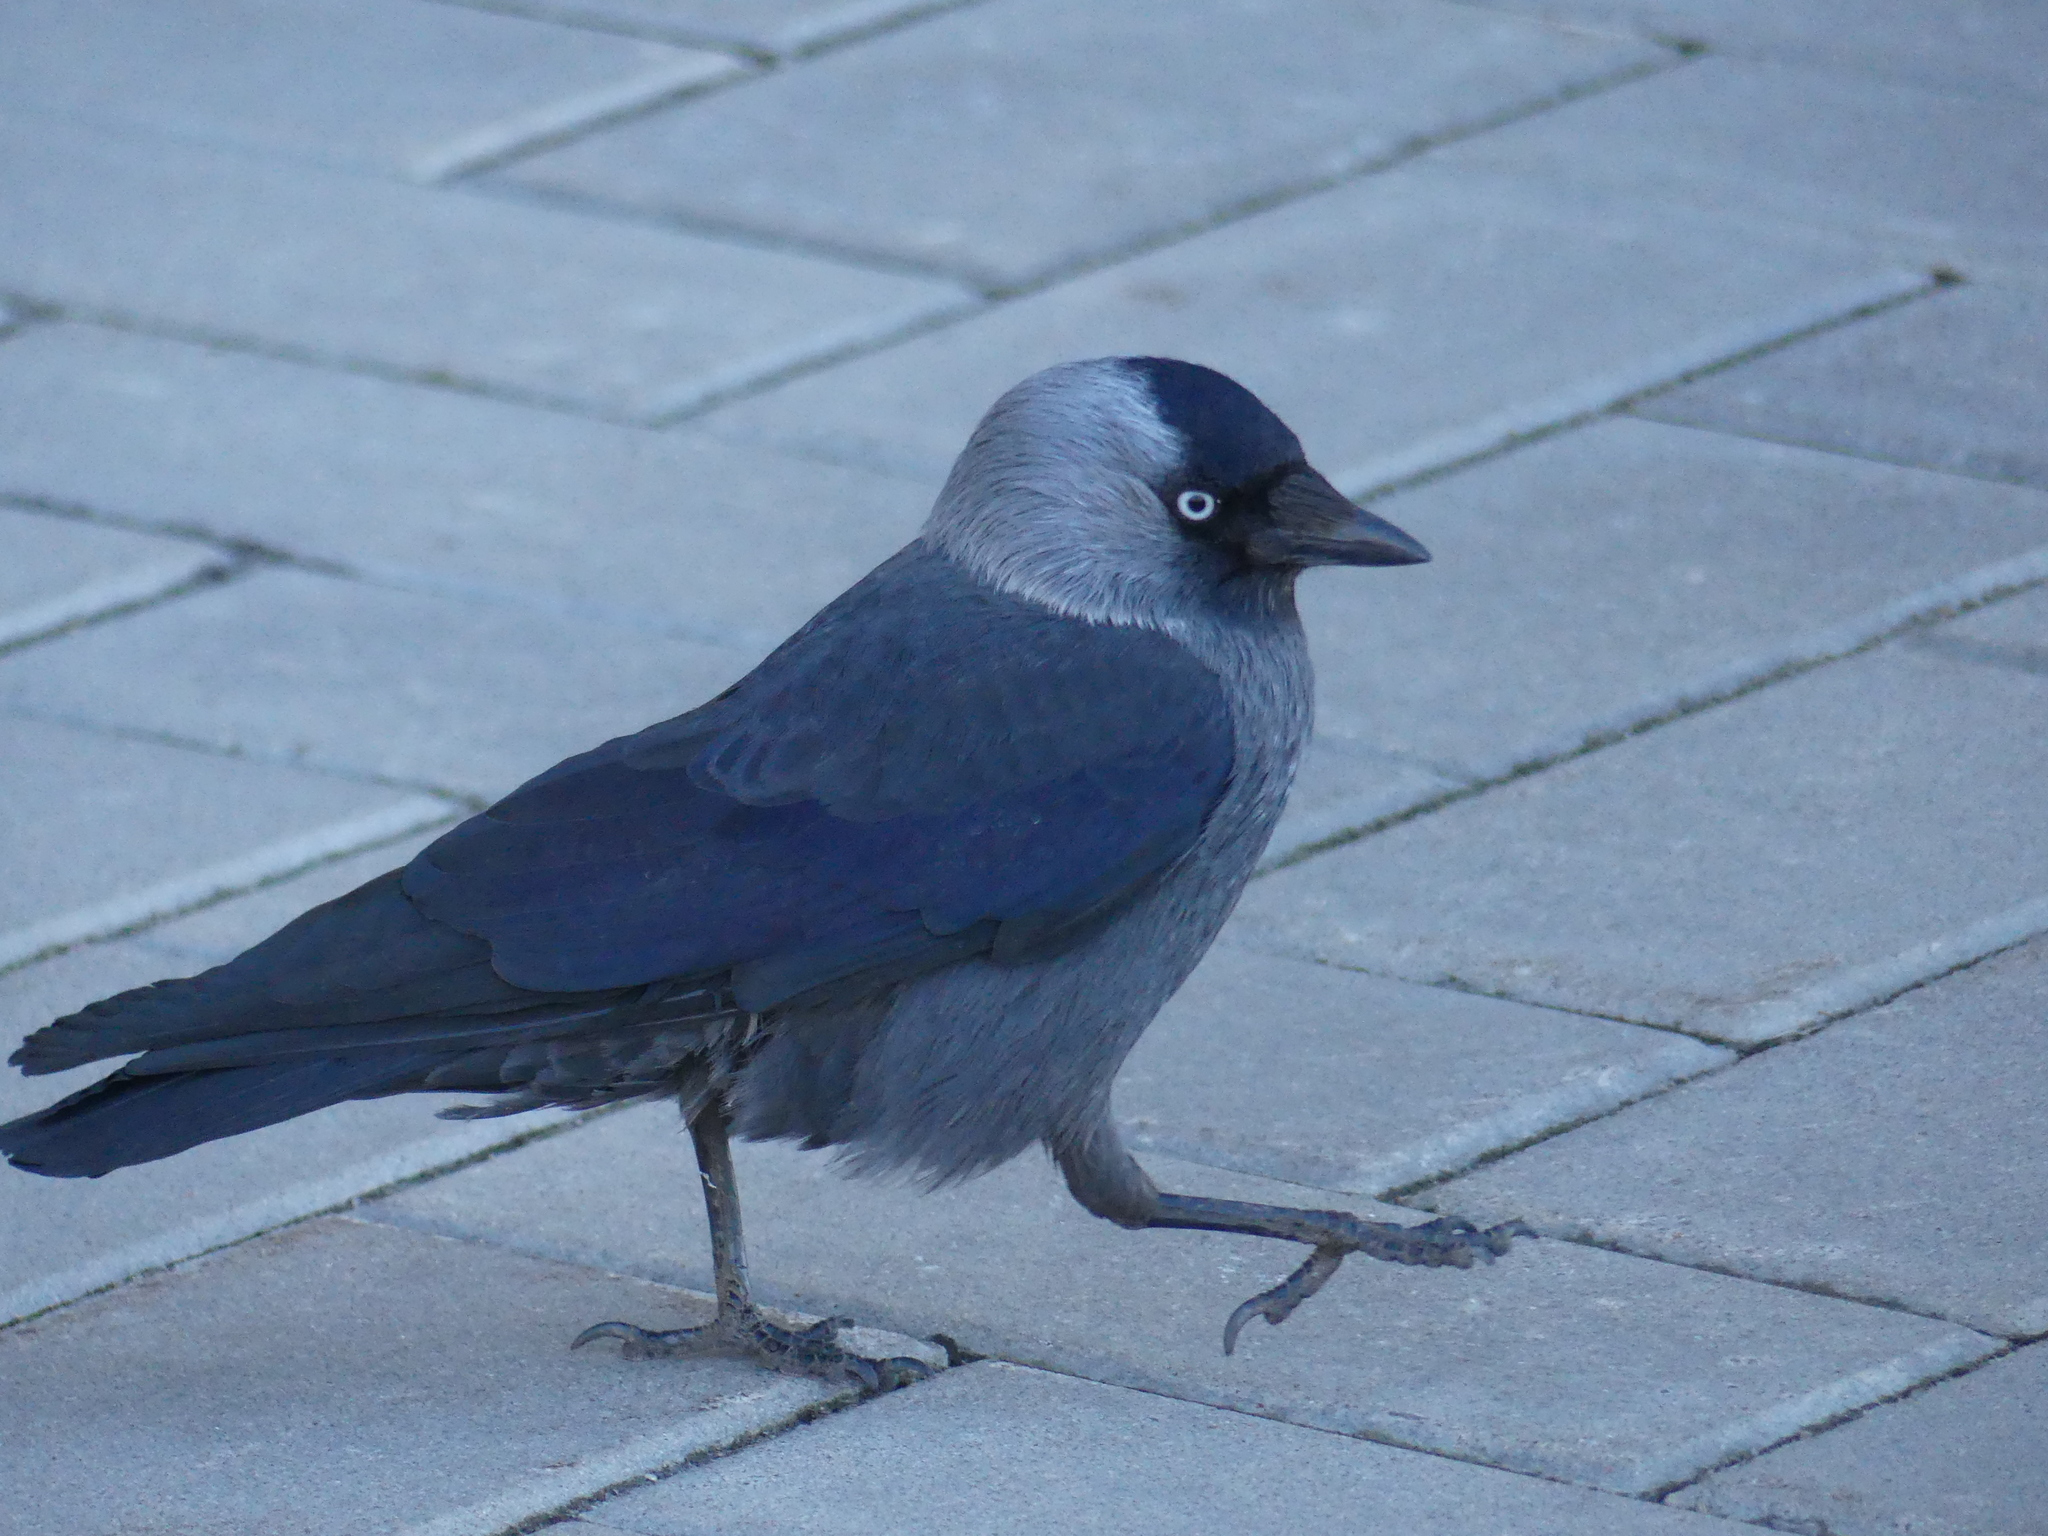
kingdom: Animalia
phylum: Chordata
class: Aves
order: Passeriformes
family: Corvidae
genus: Coloeus
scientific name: Coloeus monedula
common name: Western jackdaw
